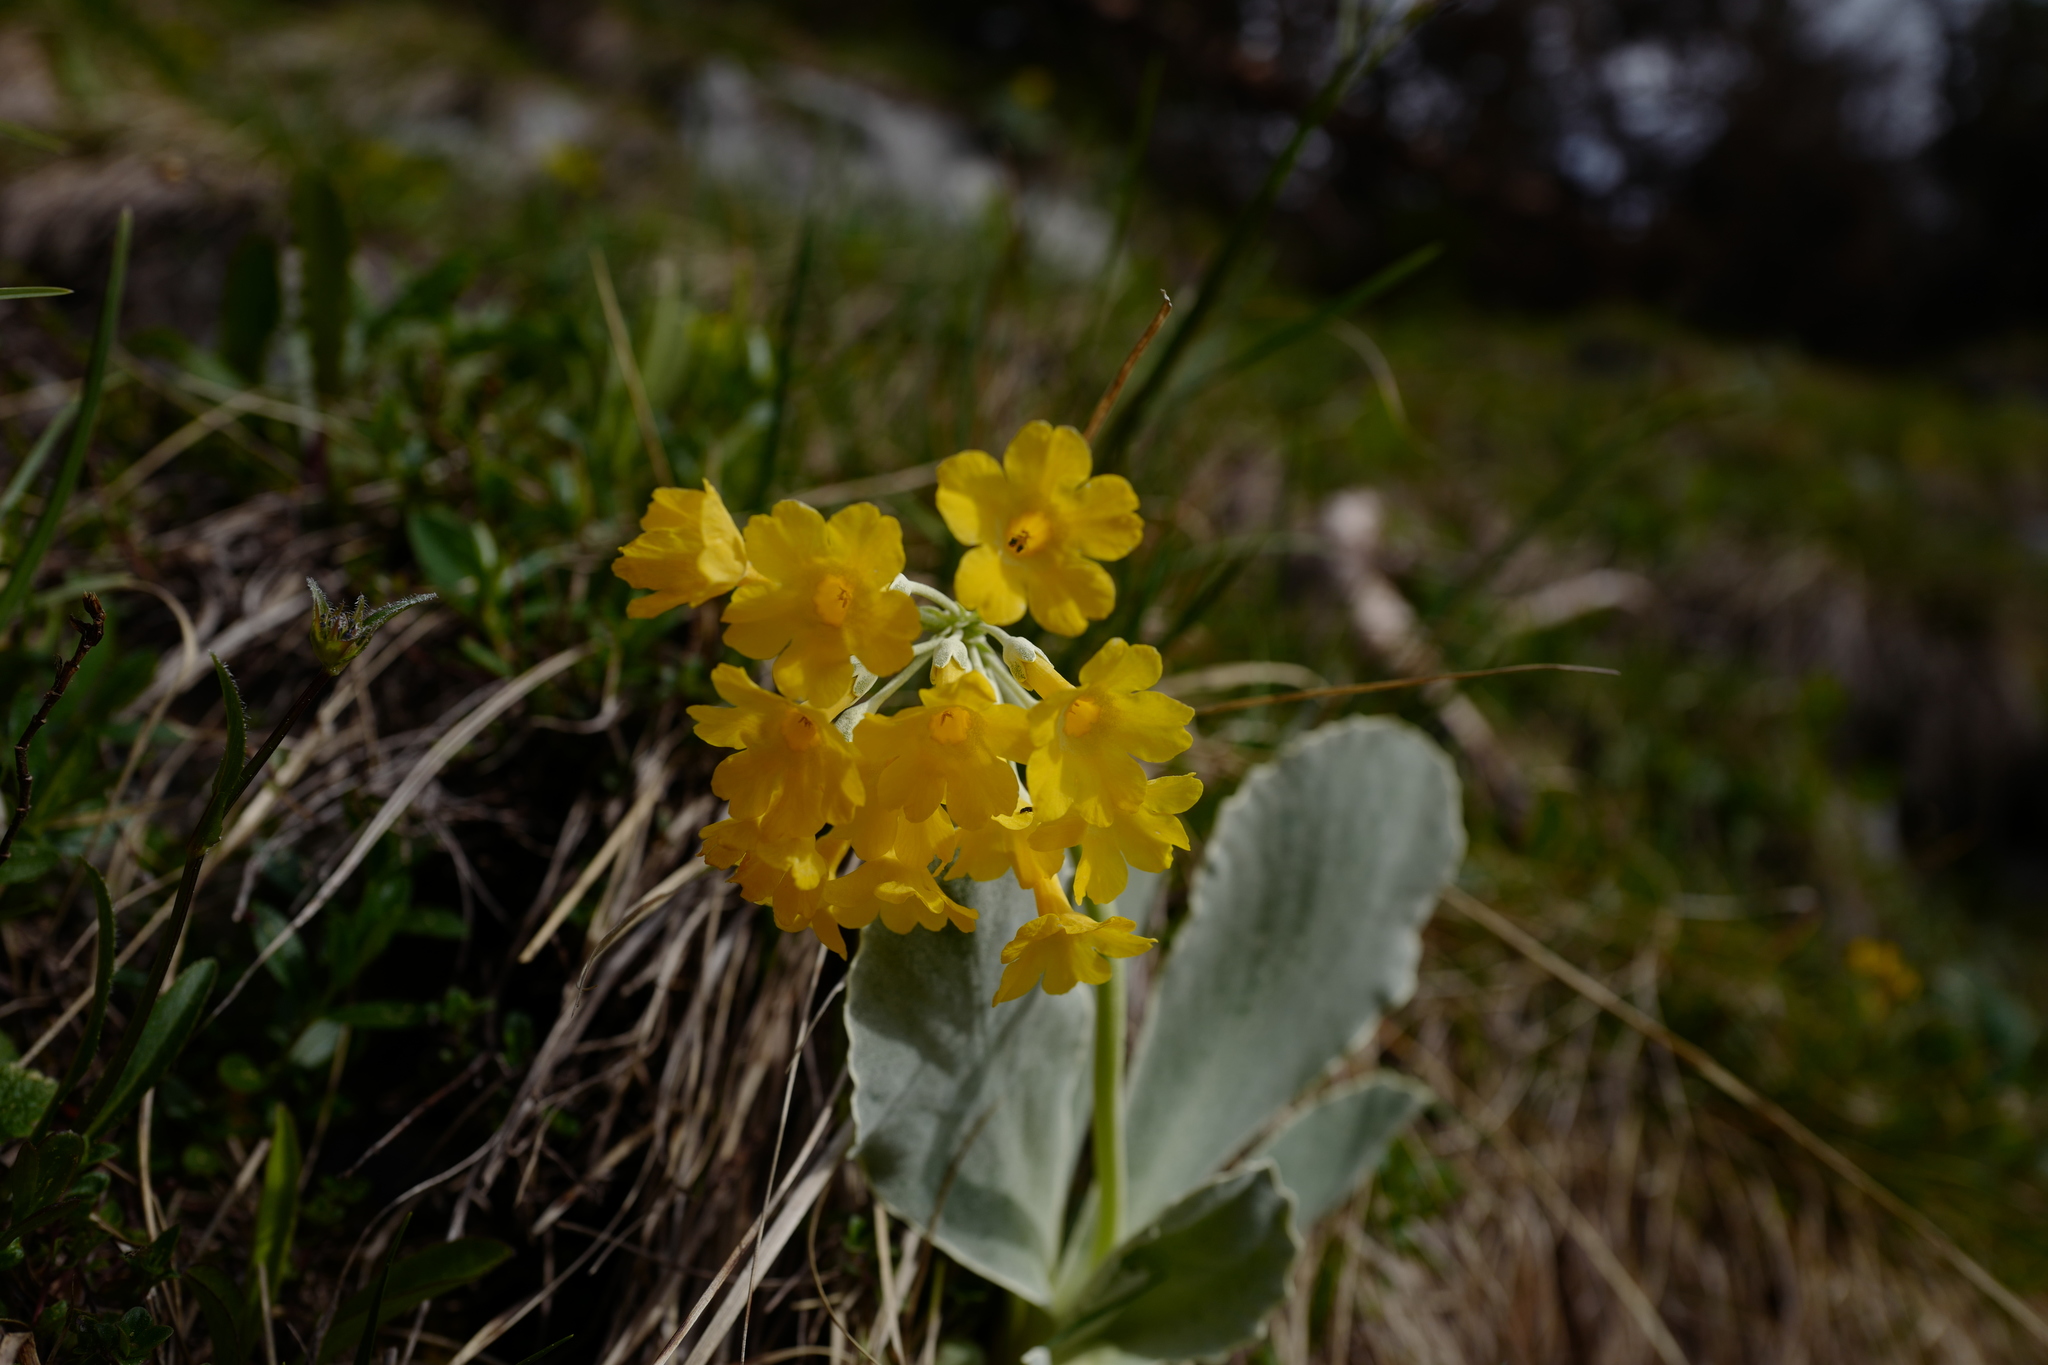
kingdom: Plantae
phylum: Tracheophyta
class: Magnoliopsida
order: Ericales
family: Primulaceae
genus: Primula
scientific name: Primula auricula
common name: Auricula
